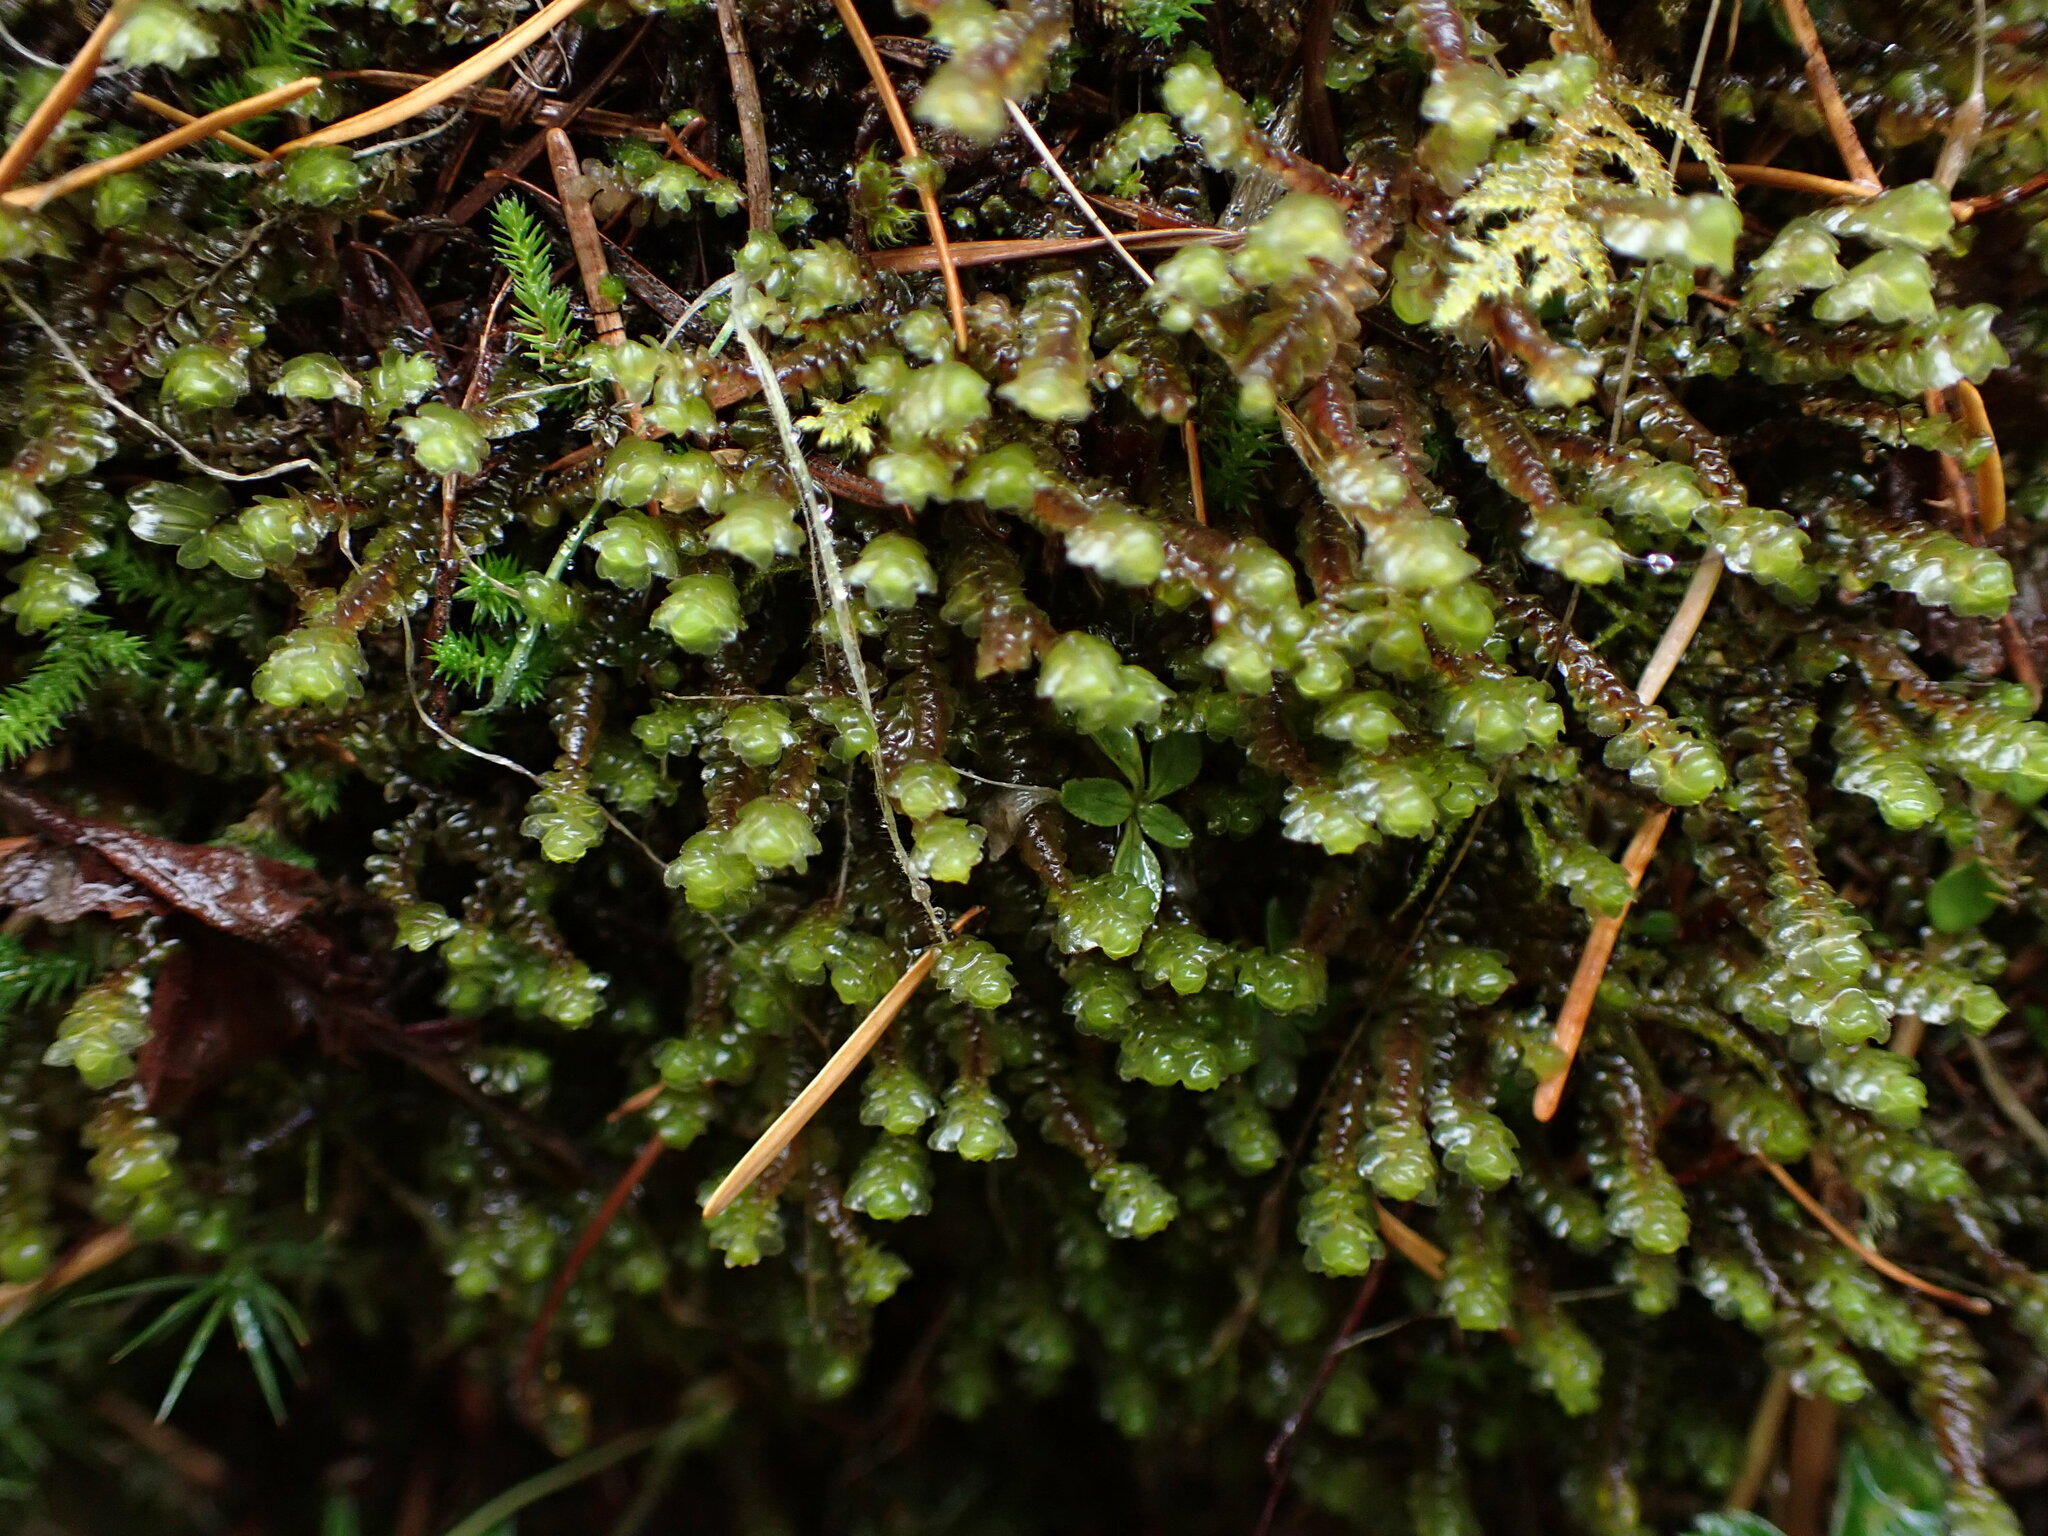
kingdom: Plantae
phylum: Marchantiophyta
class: Jungermanniopsida
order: Jungermanniales
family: Scapaniaceae
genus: Scapania
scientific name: Scapania americana
